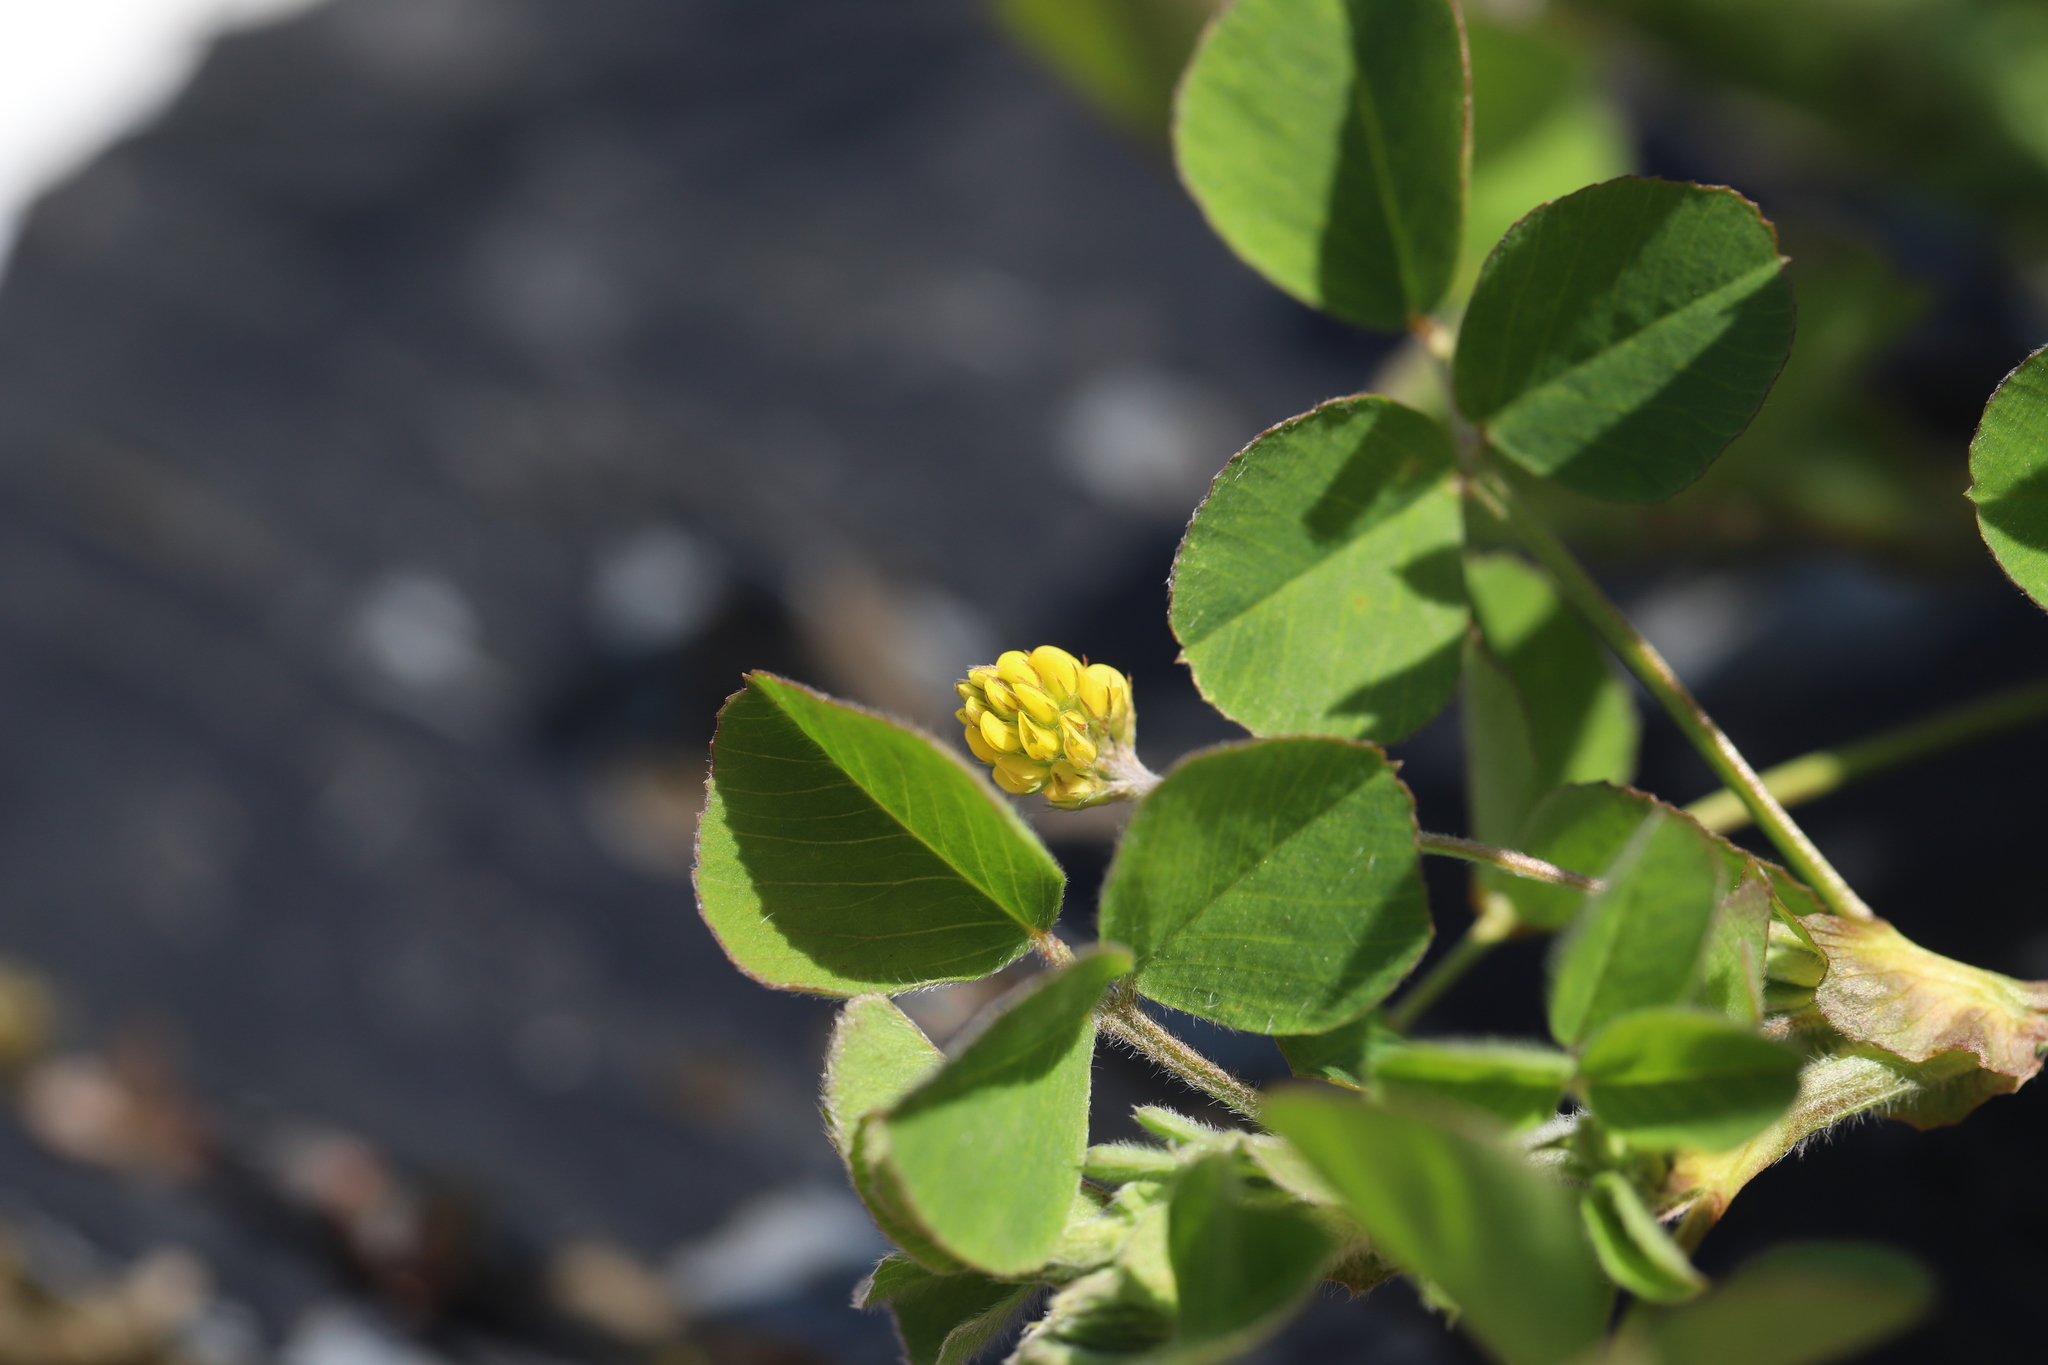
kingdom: Plantae
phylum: Tracheophyta
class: Magnoliopsida
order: Fabales
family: Fabaceae
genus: Medicago
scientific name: Medicago lupulina
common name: Black medick
